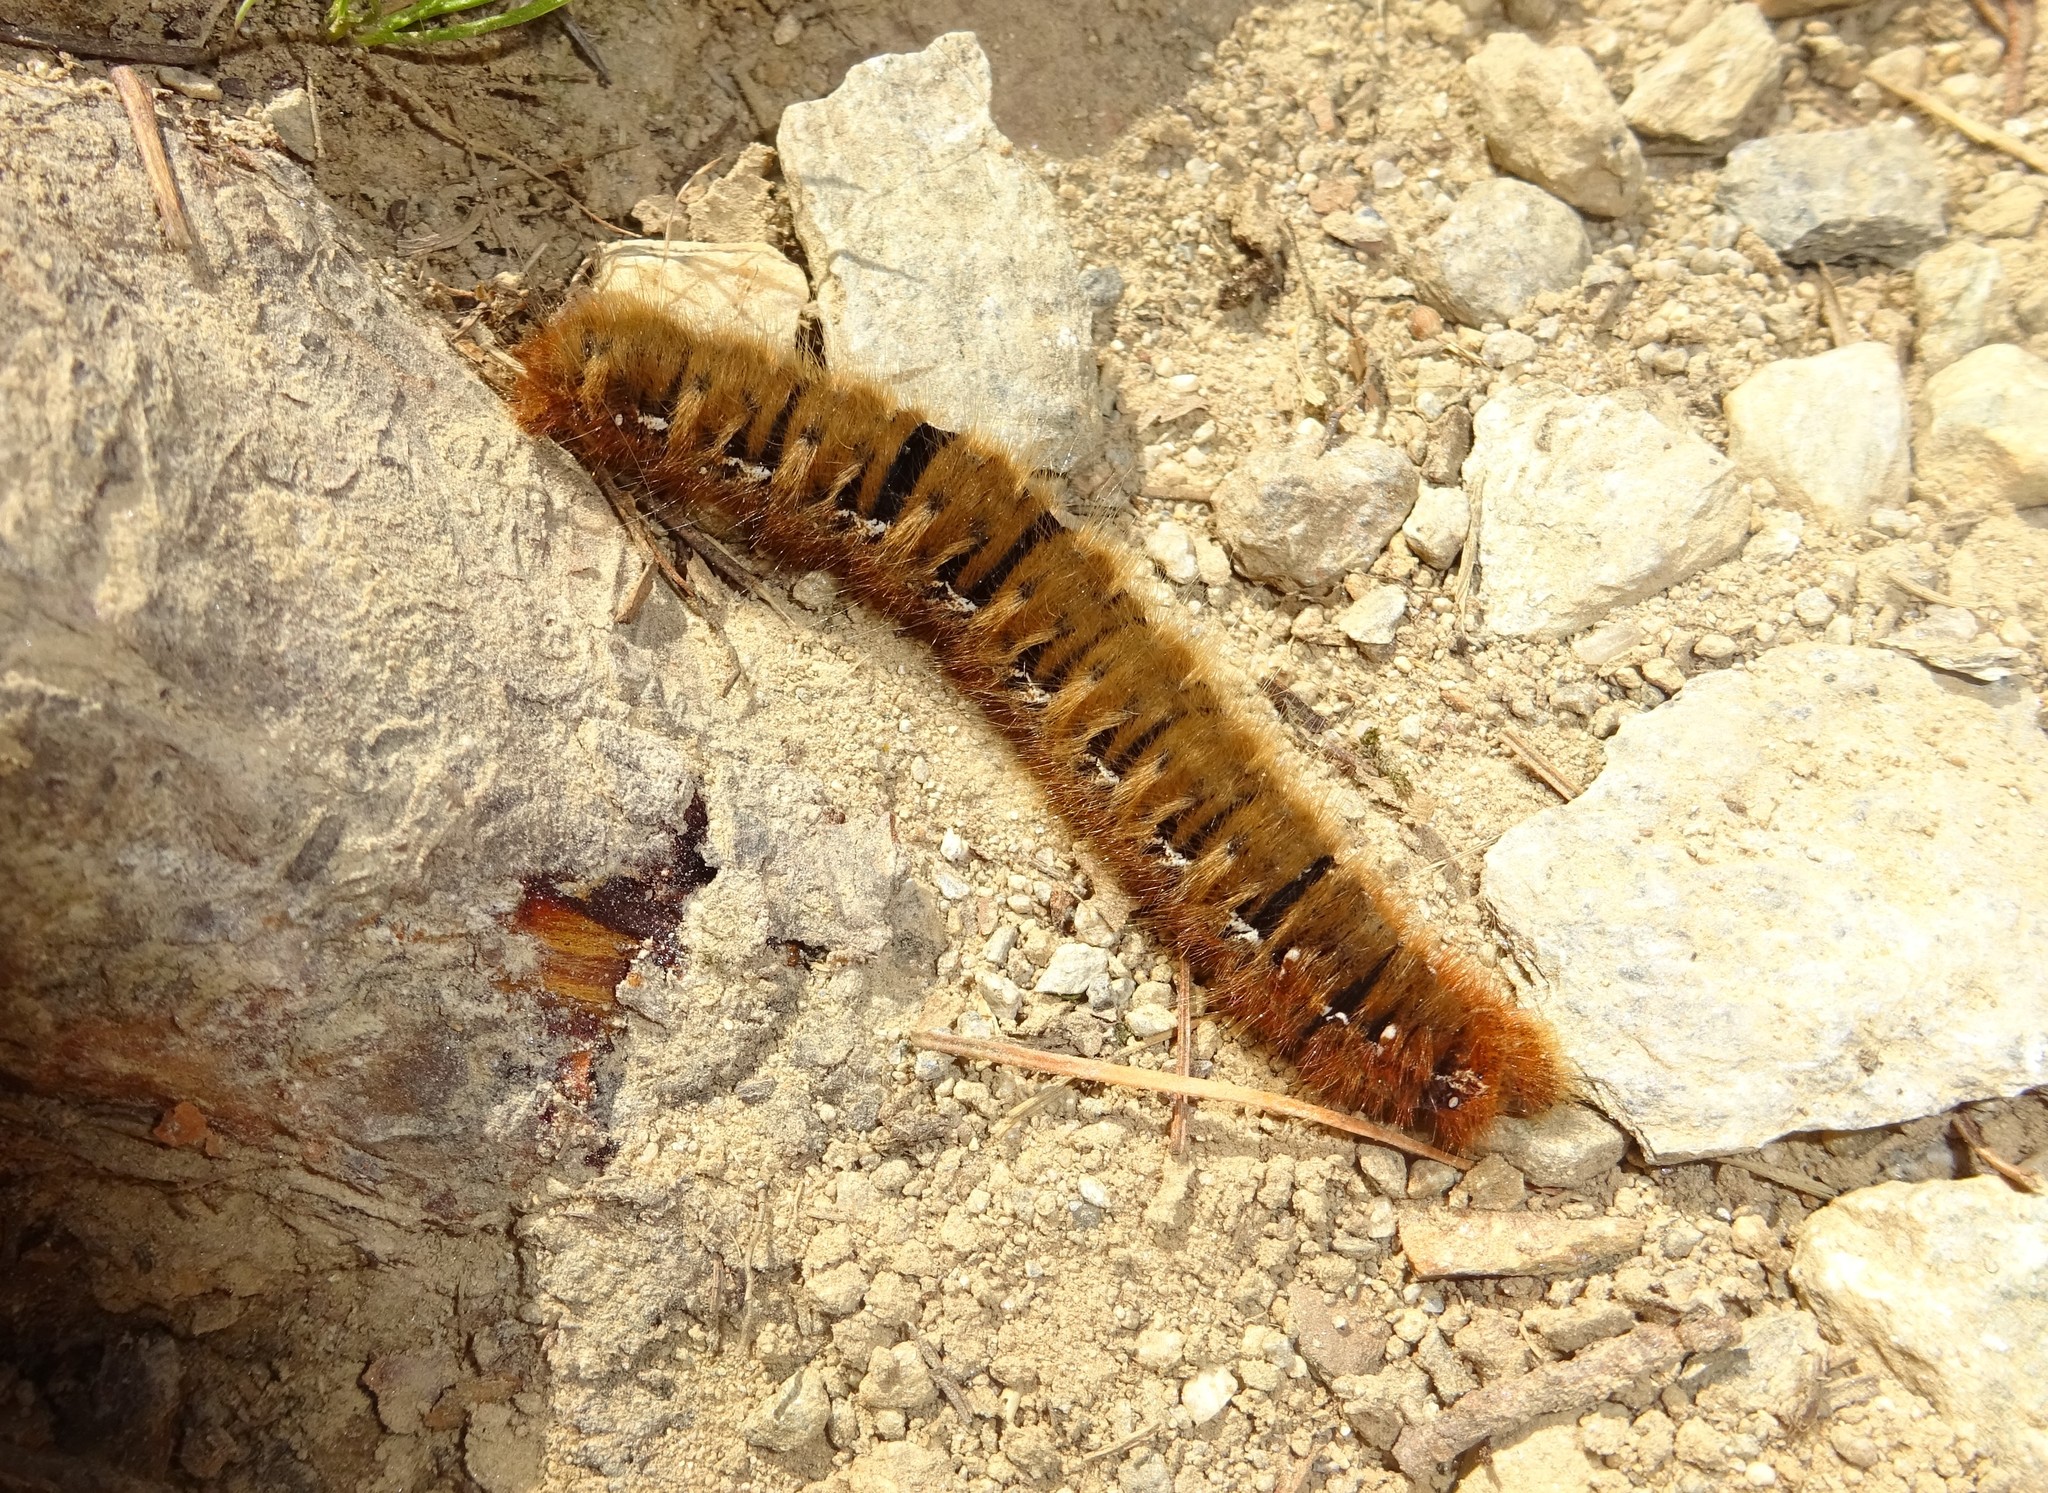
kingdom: Animalia
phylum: Arthropoda
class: Insecta
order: Lepidoptera
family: Lasiocampidae
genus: Lasiocampa
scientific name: Lasiocampa quercus
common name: Oak eggar
